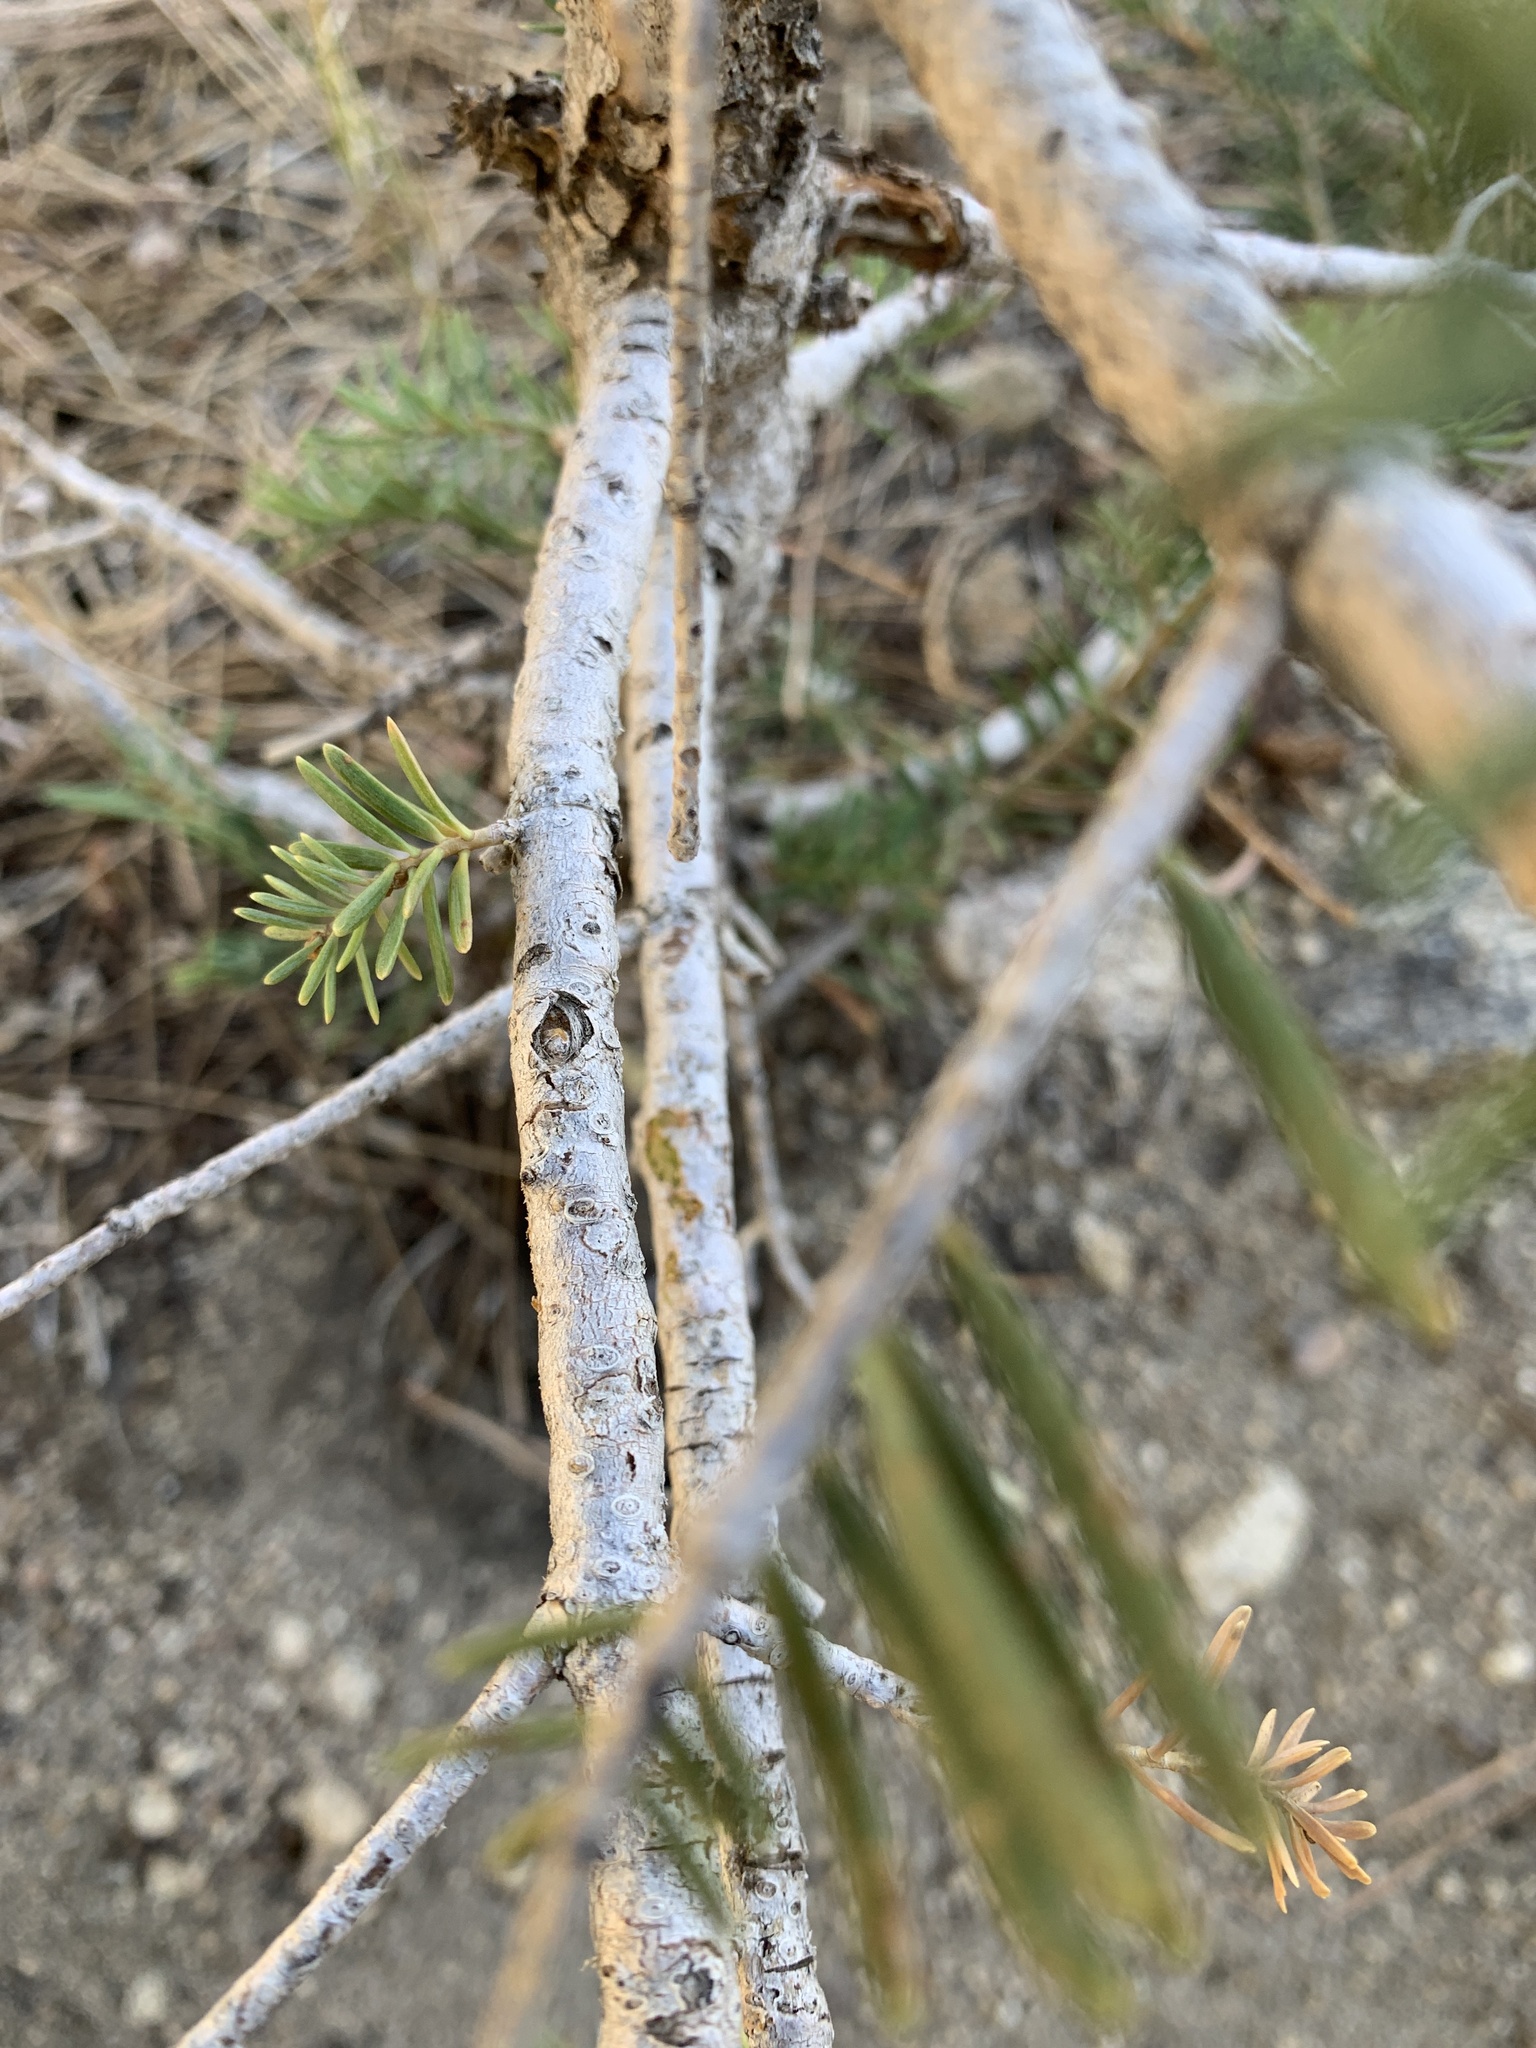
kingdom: Plantae
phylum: Tracheophyta
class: Pinopsida
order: Pinales
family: Pinaceae
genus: Abies
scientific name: Abies concolor
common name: Colorado fir
